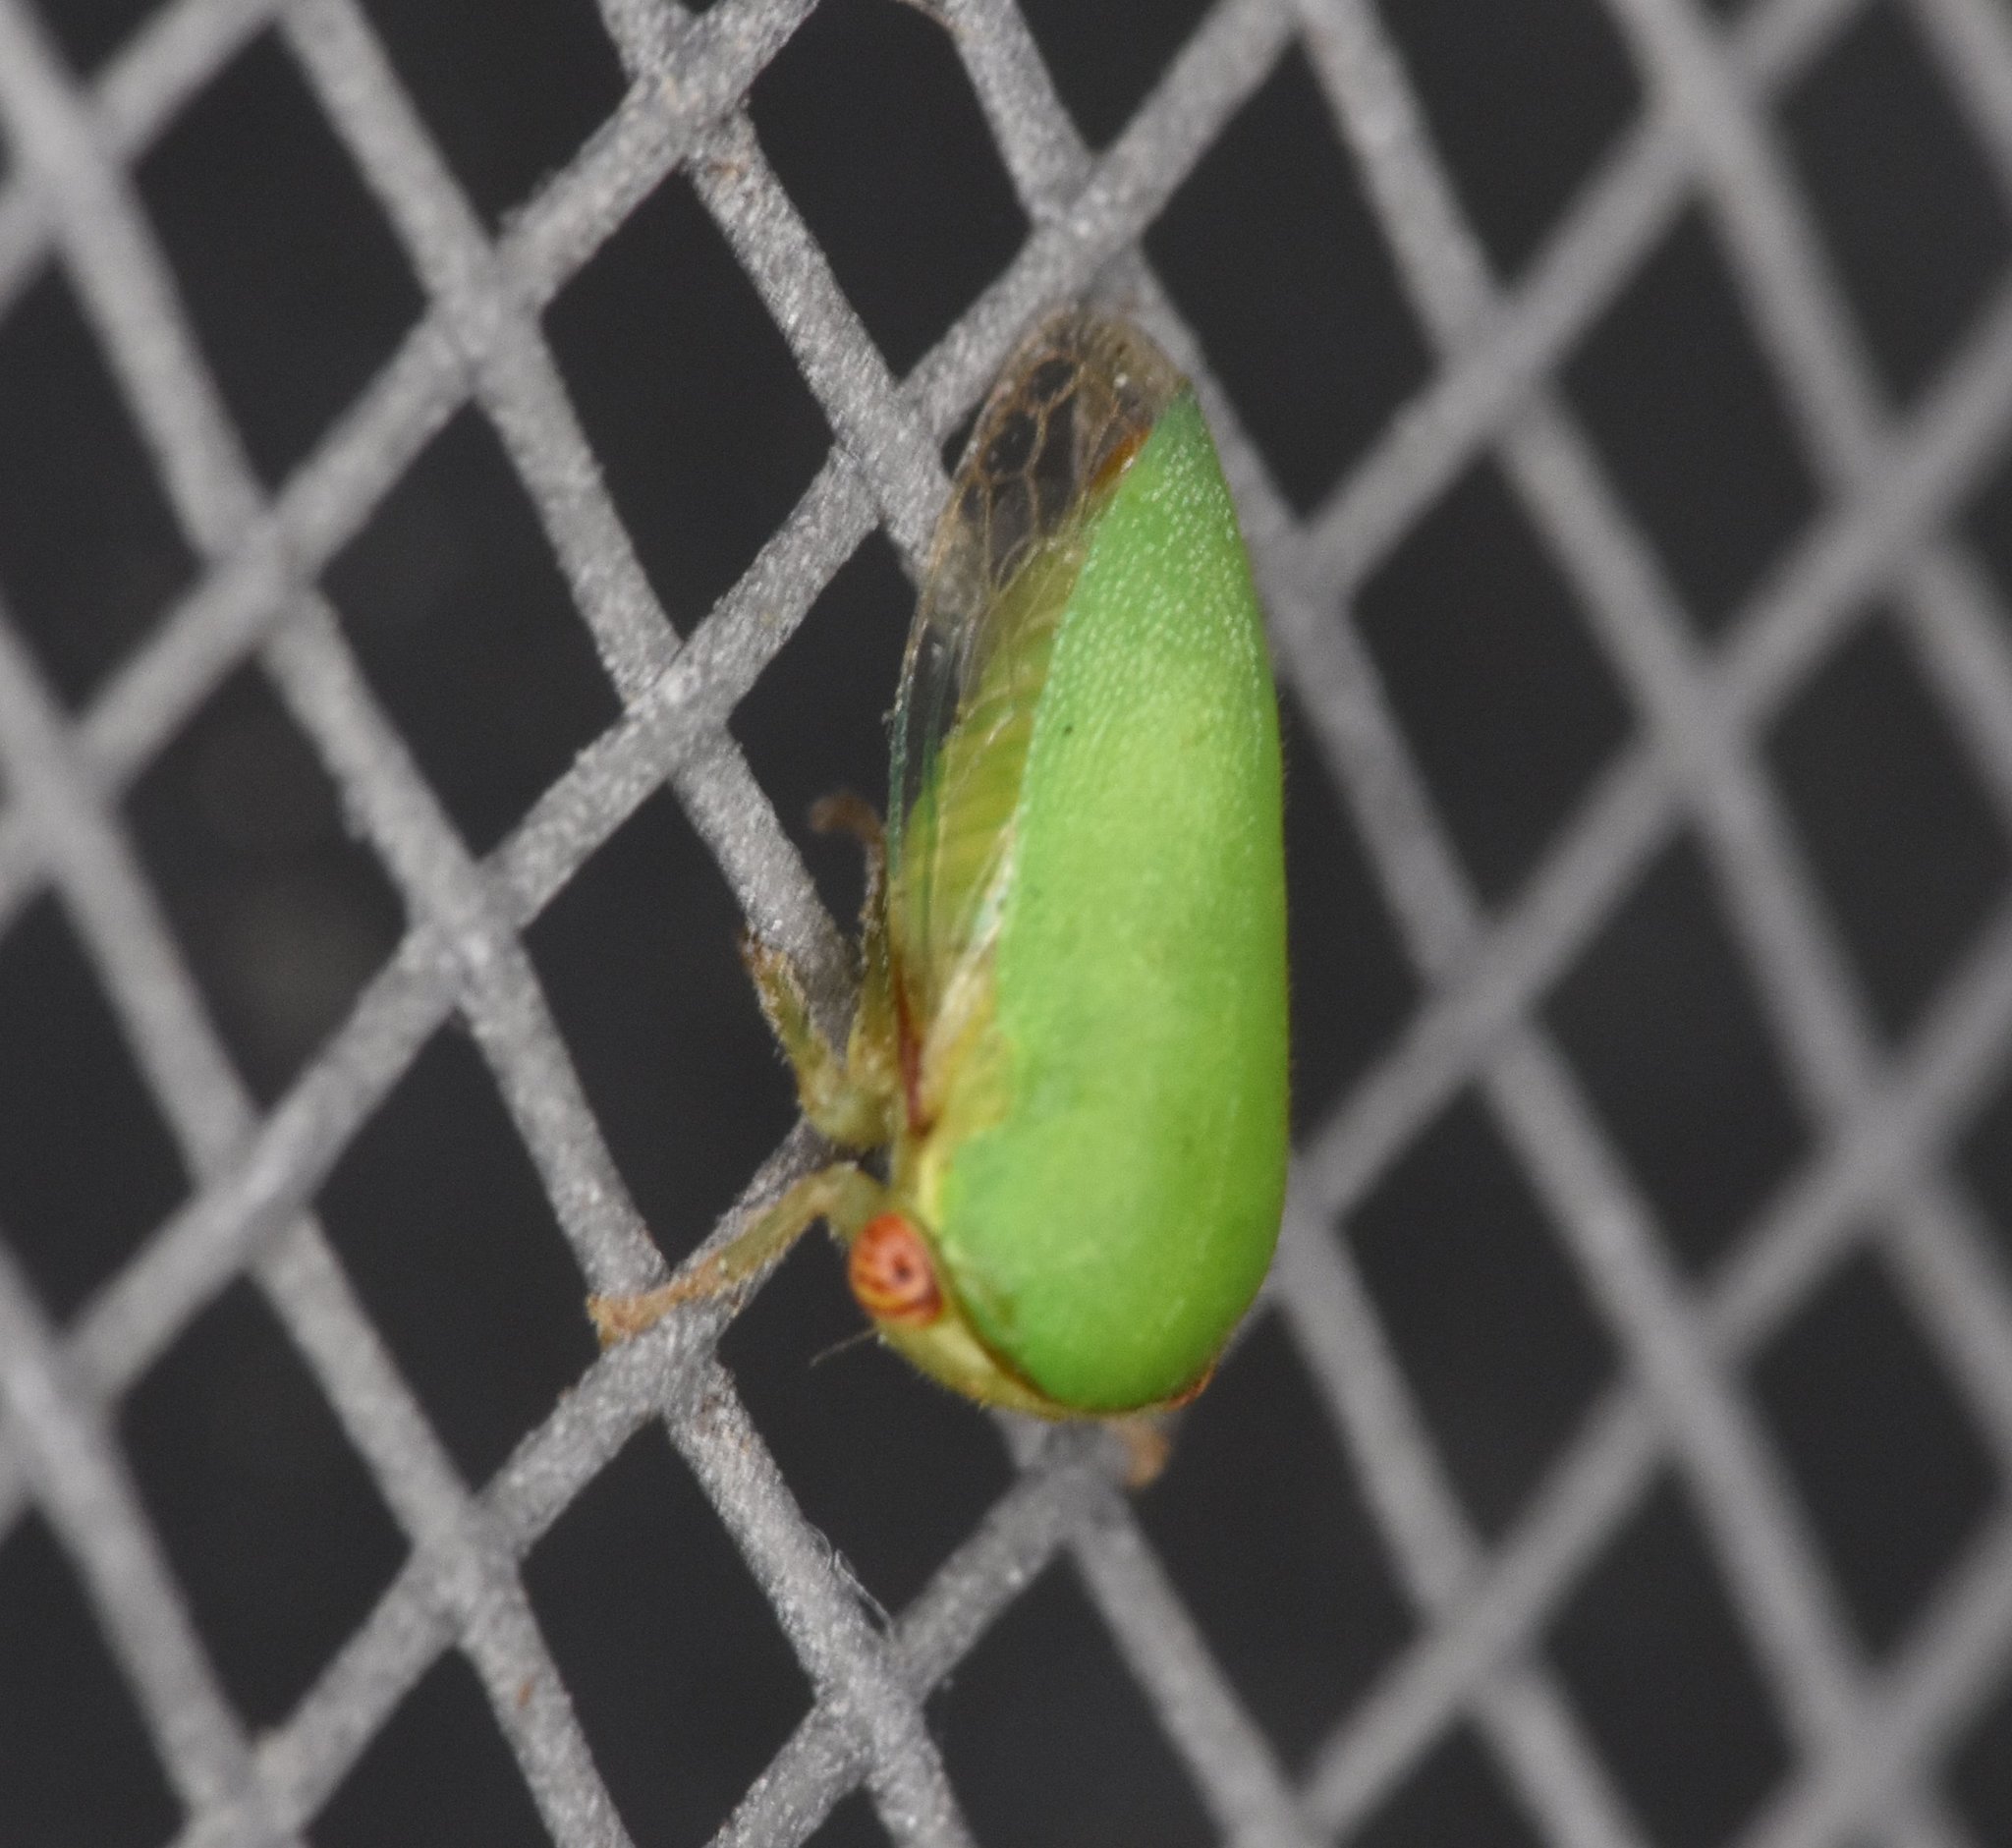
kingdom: Animalia
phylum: Arthropoda
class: Insecta
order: Hemiptera
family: Membracidae
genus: Idioderma
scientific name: Idioderma virescens
